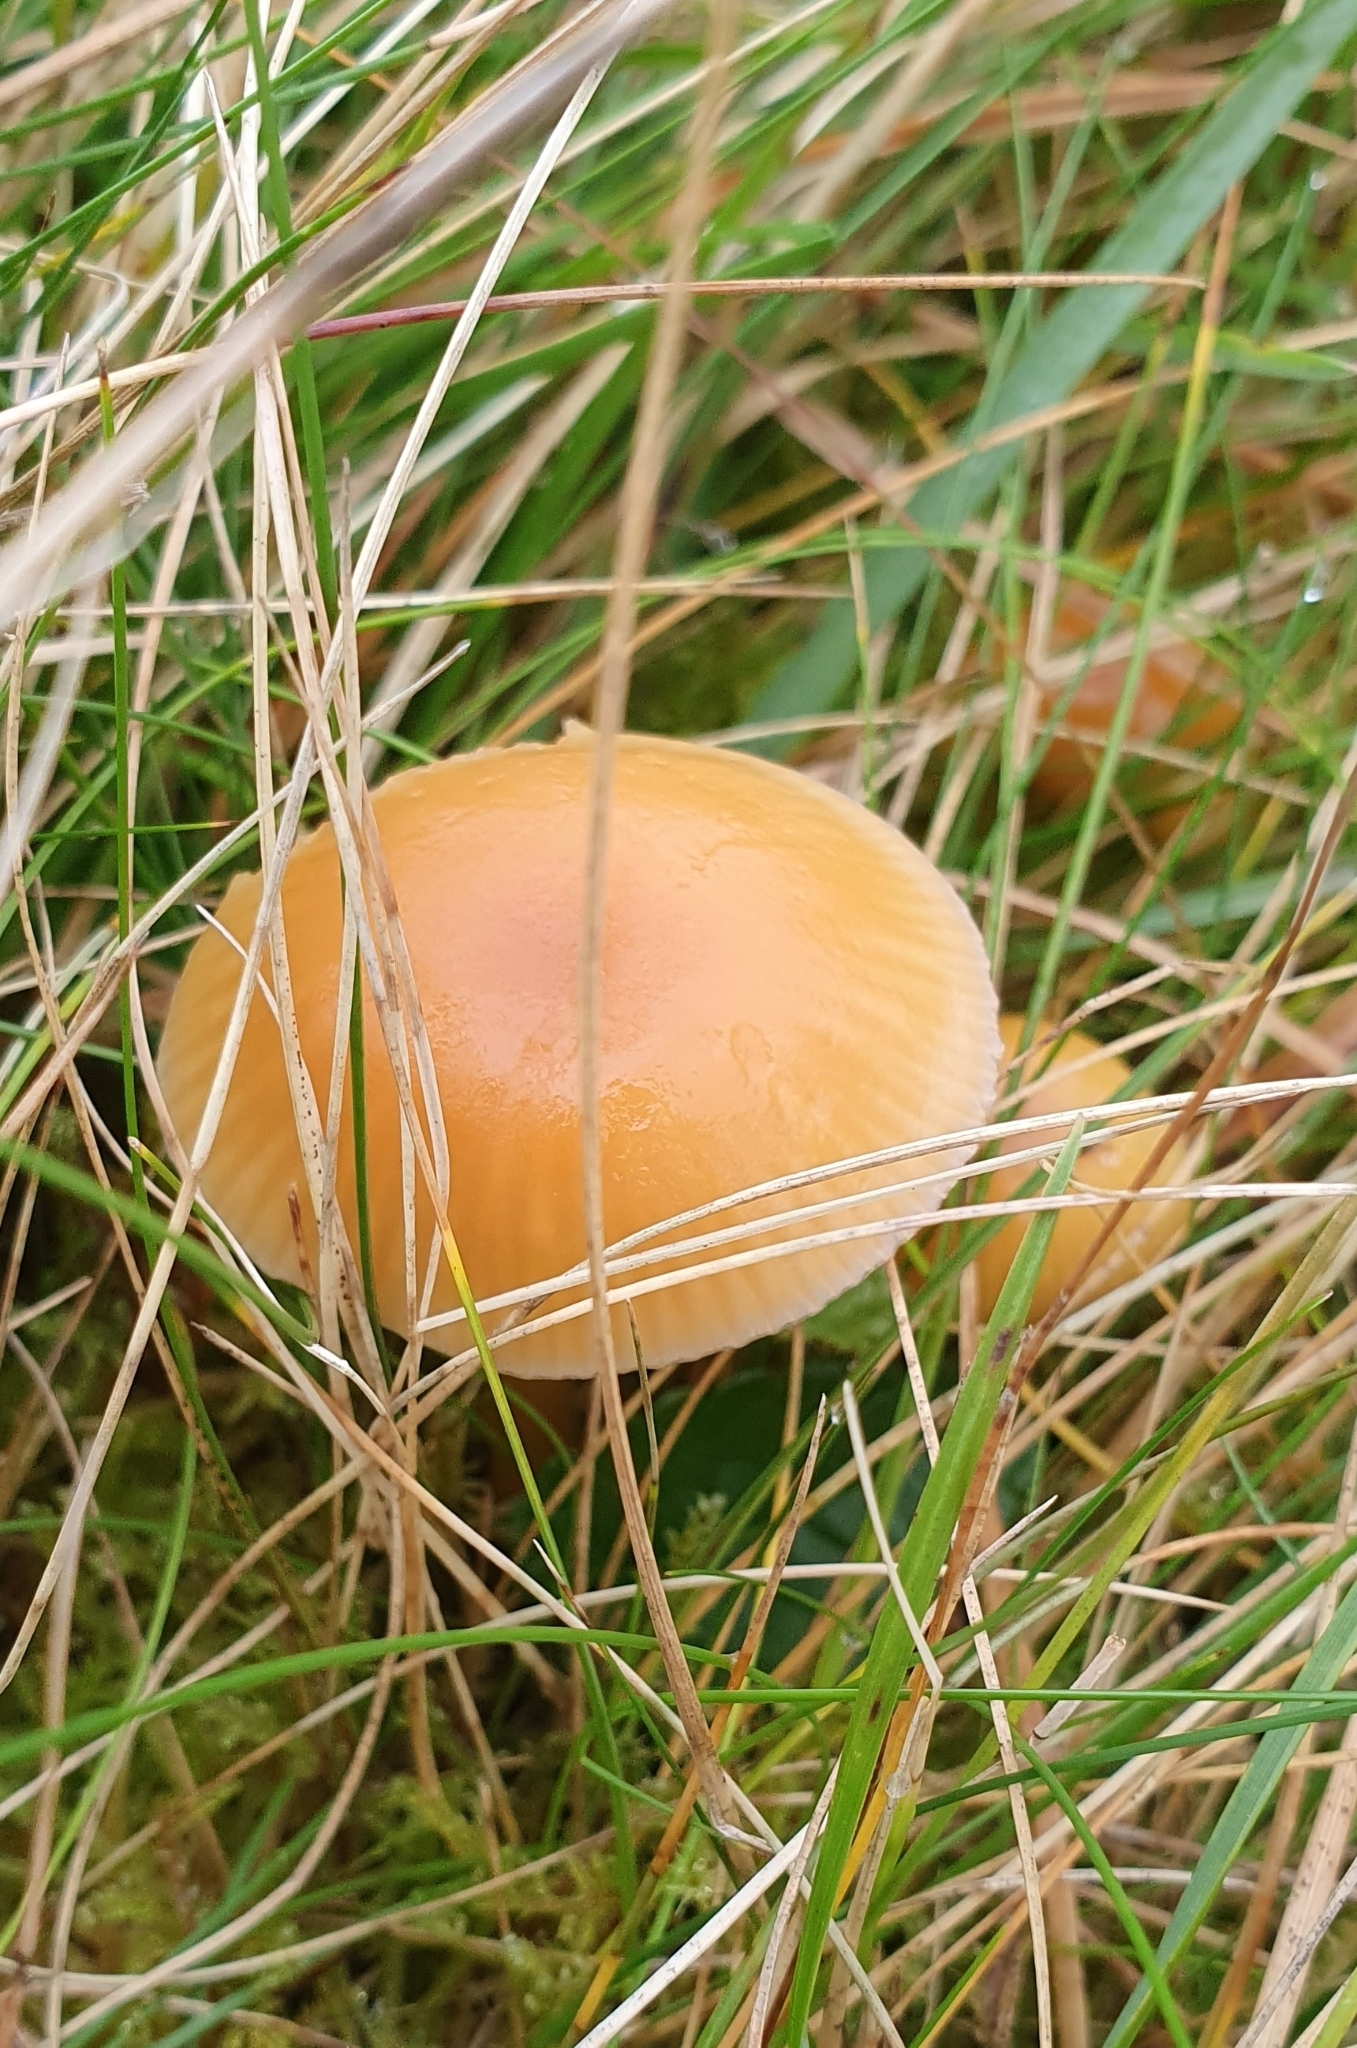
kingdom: Fungi
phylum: Basidiomycota
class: Agaricomycetes
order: Agaricales
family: Hygrophoraceae
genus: Gliophorus
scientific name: Gliophorus laetus
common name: Heath waxcap
